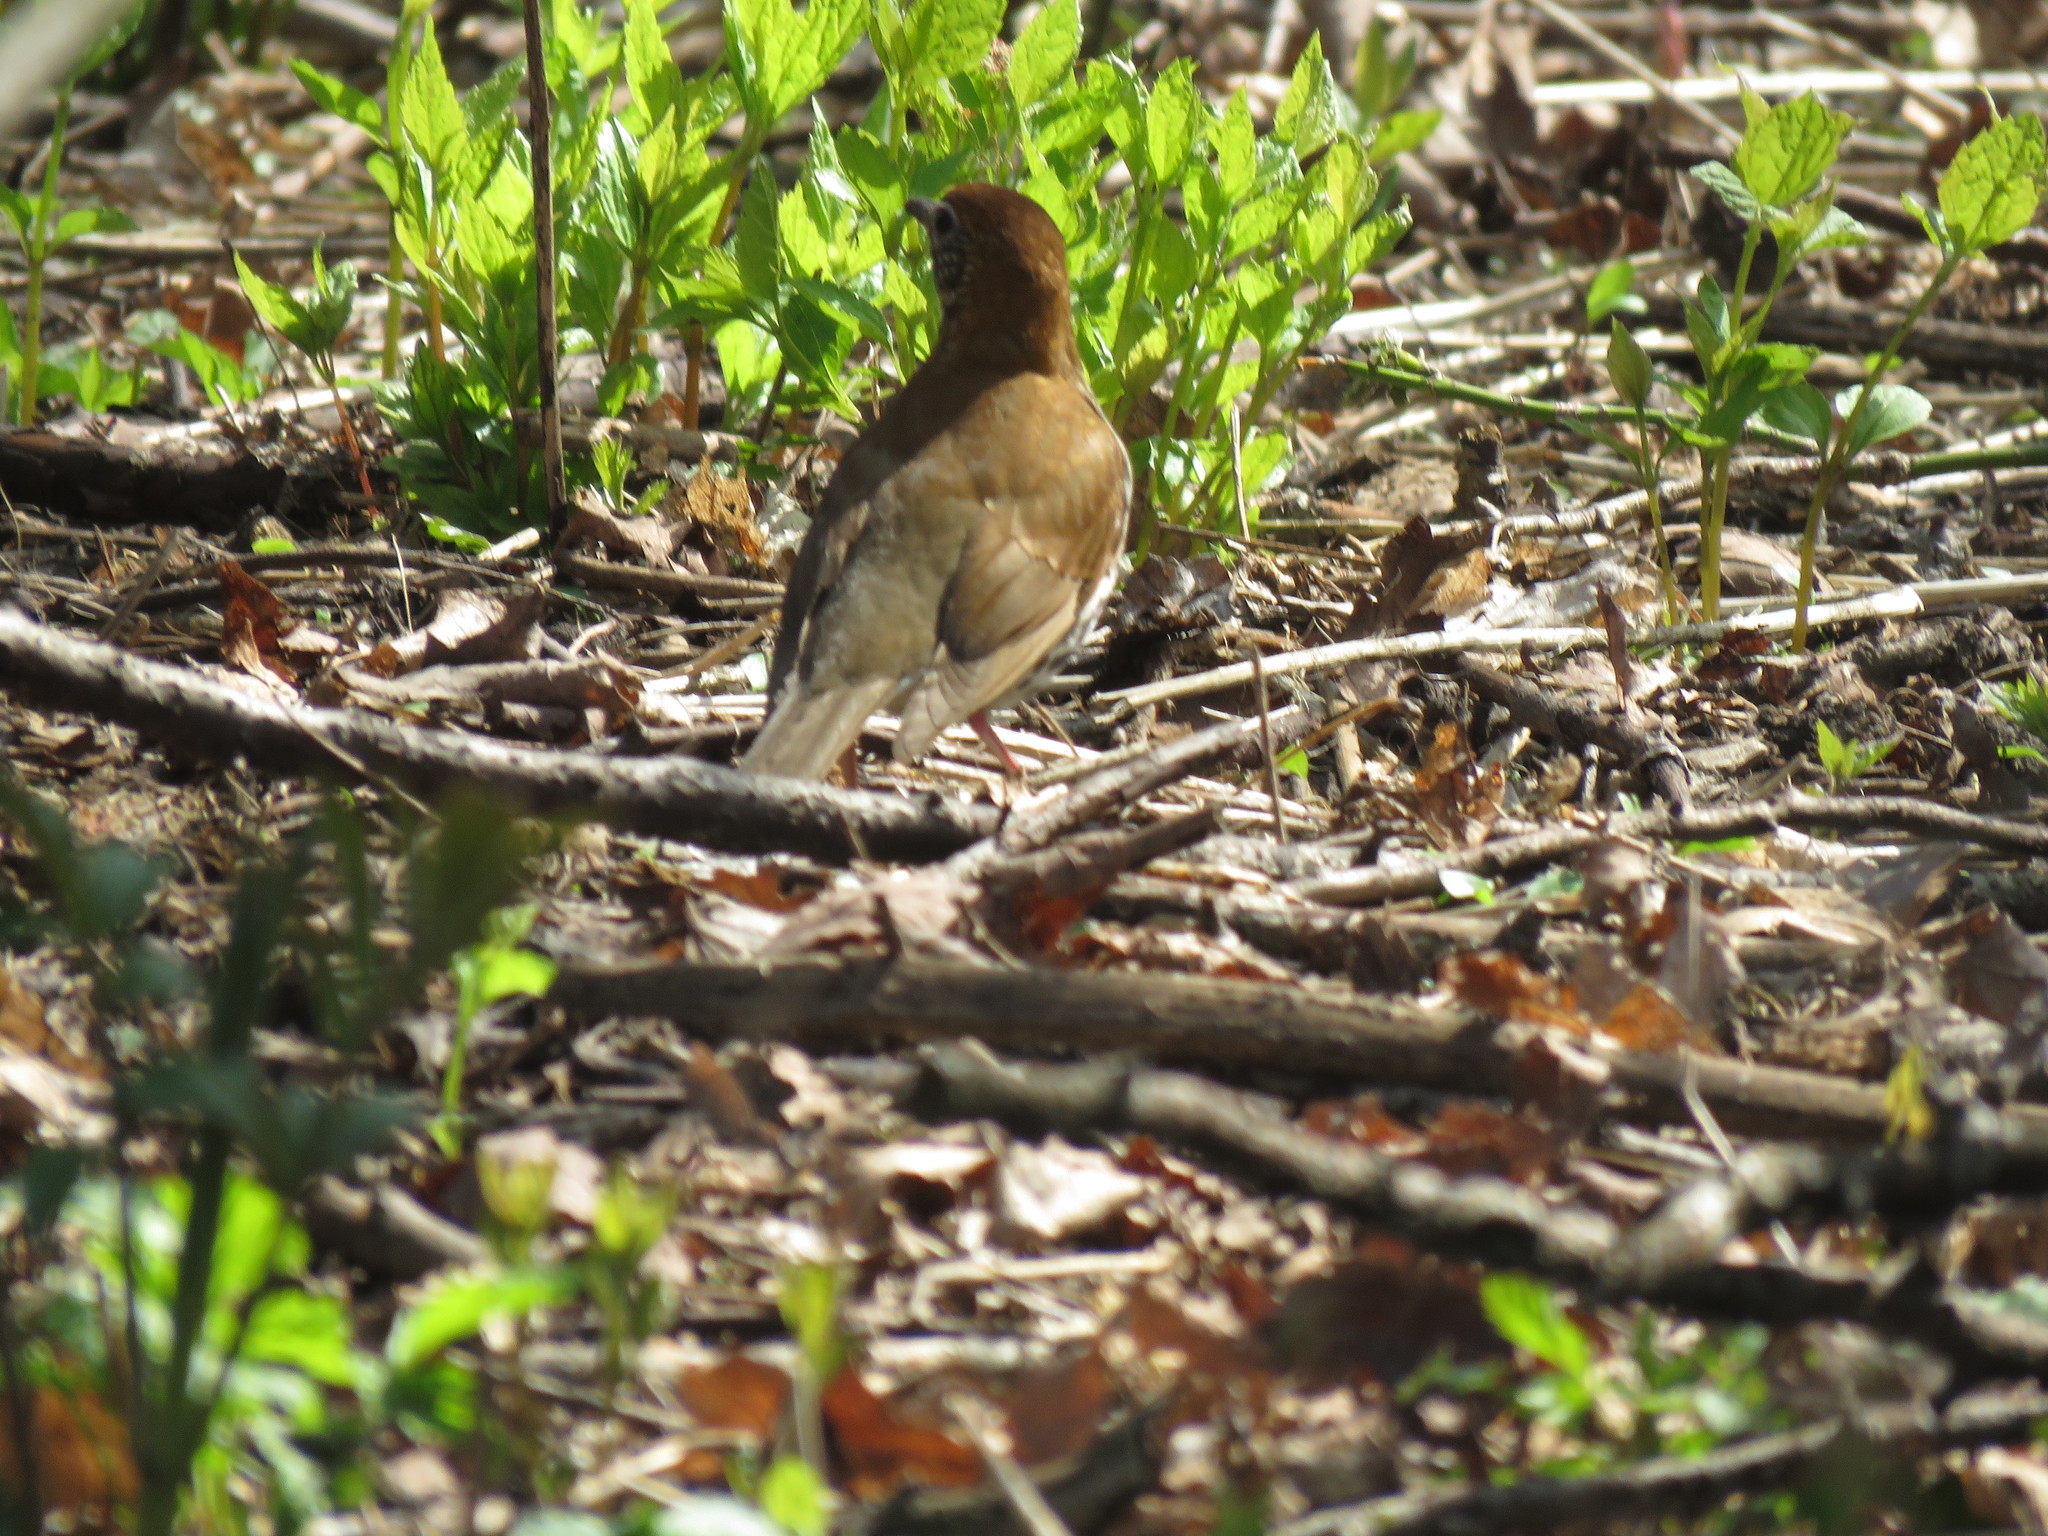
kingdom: Animalia
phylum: Chordata
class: Aves
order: Passeriformes
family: Turdidae
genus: Hylocichla
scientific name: Hylocichla mustelina
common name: Wood thrush
